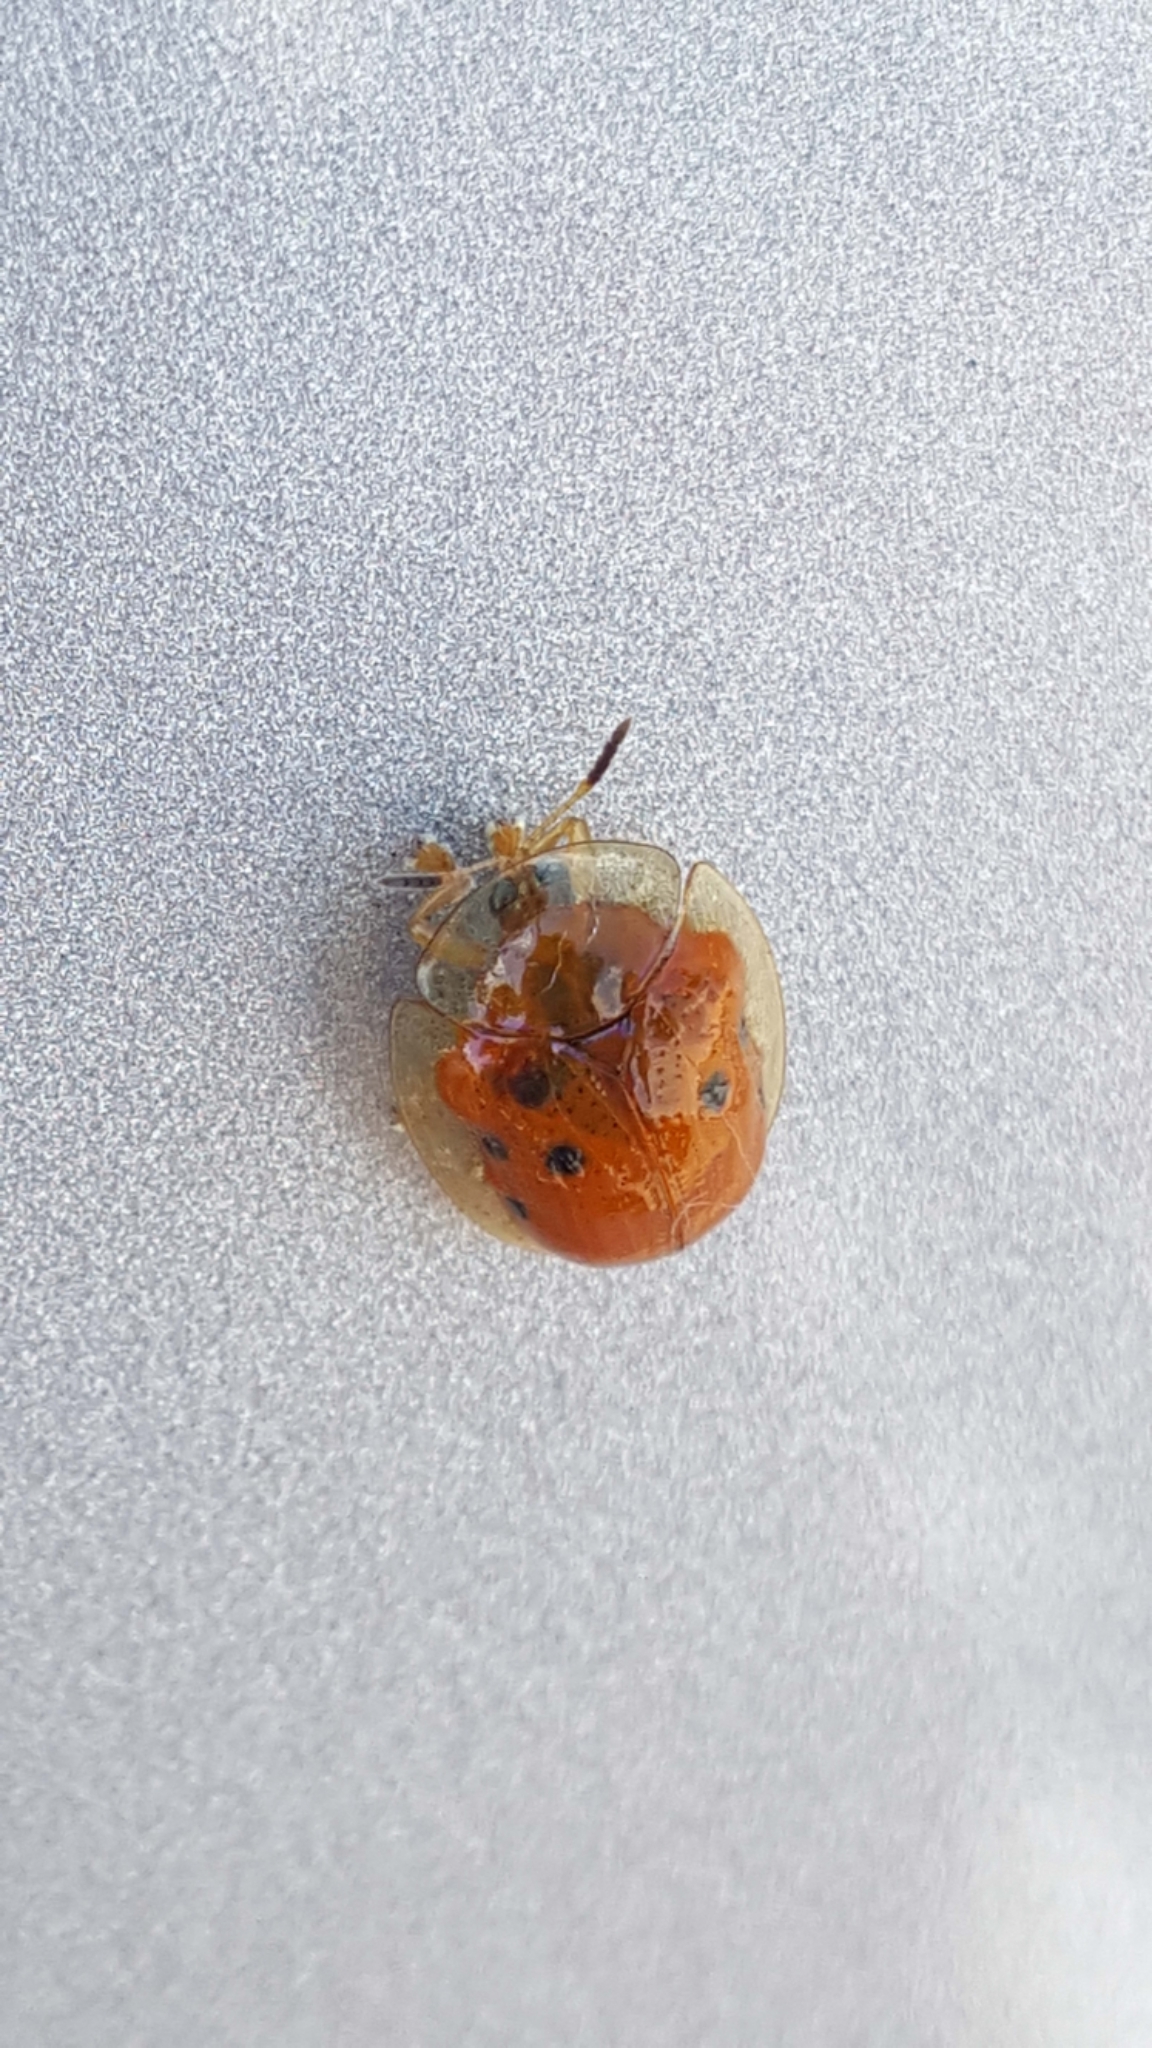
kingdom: Animalia
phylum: Arthropoda
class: Insecta
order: Coleoptera
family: Chrysomelidae
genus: Charidotella
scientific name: Charidotella sexpunctata
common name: Golden tortoise beetle
